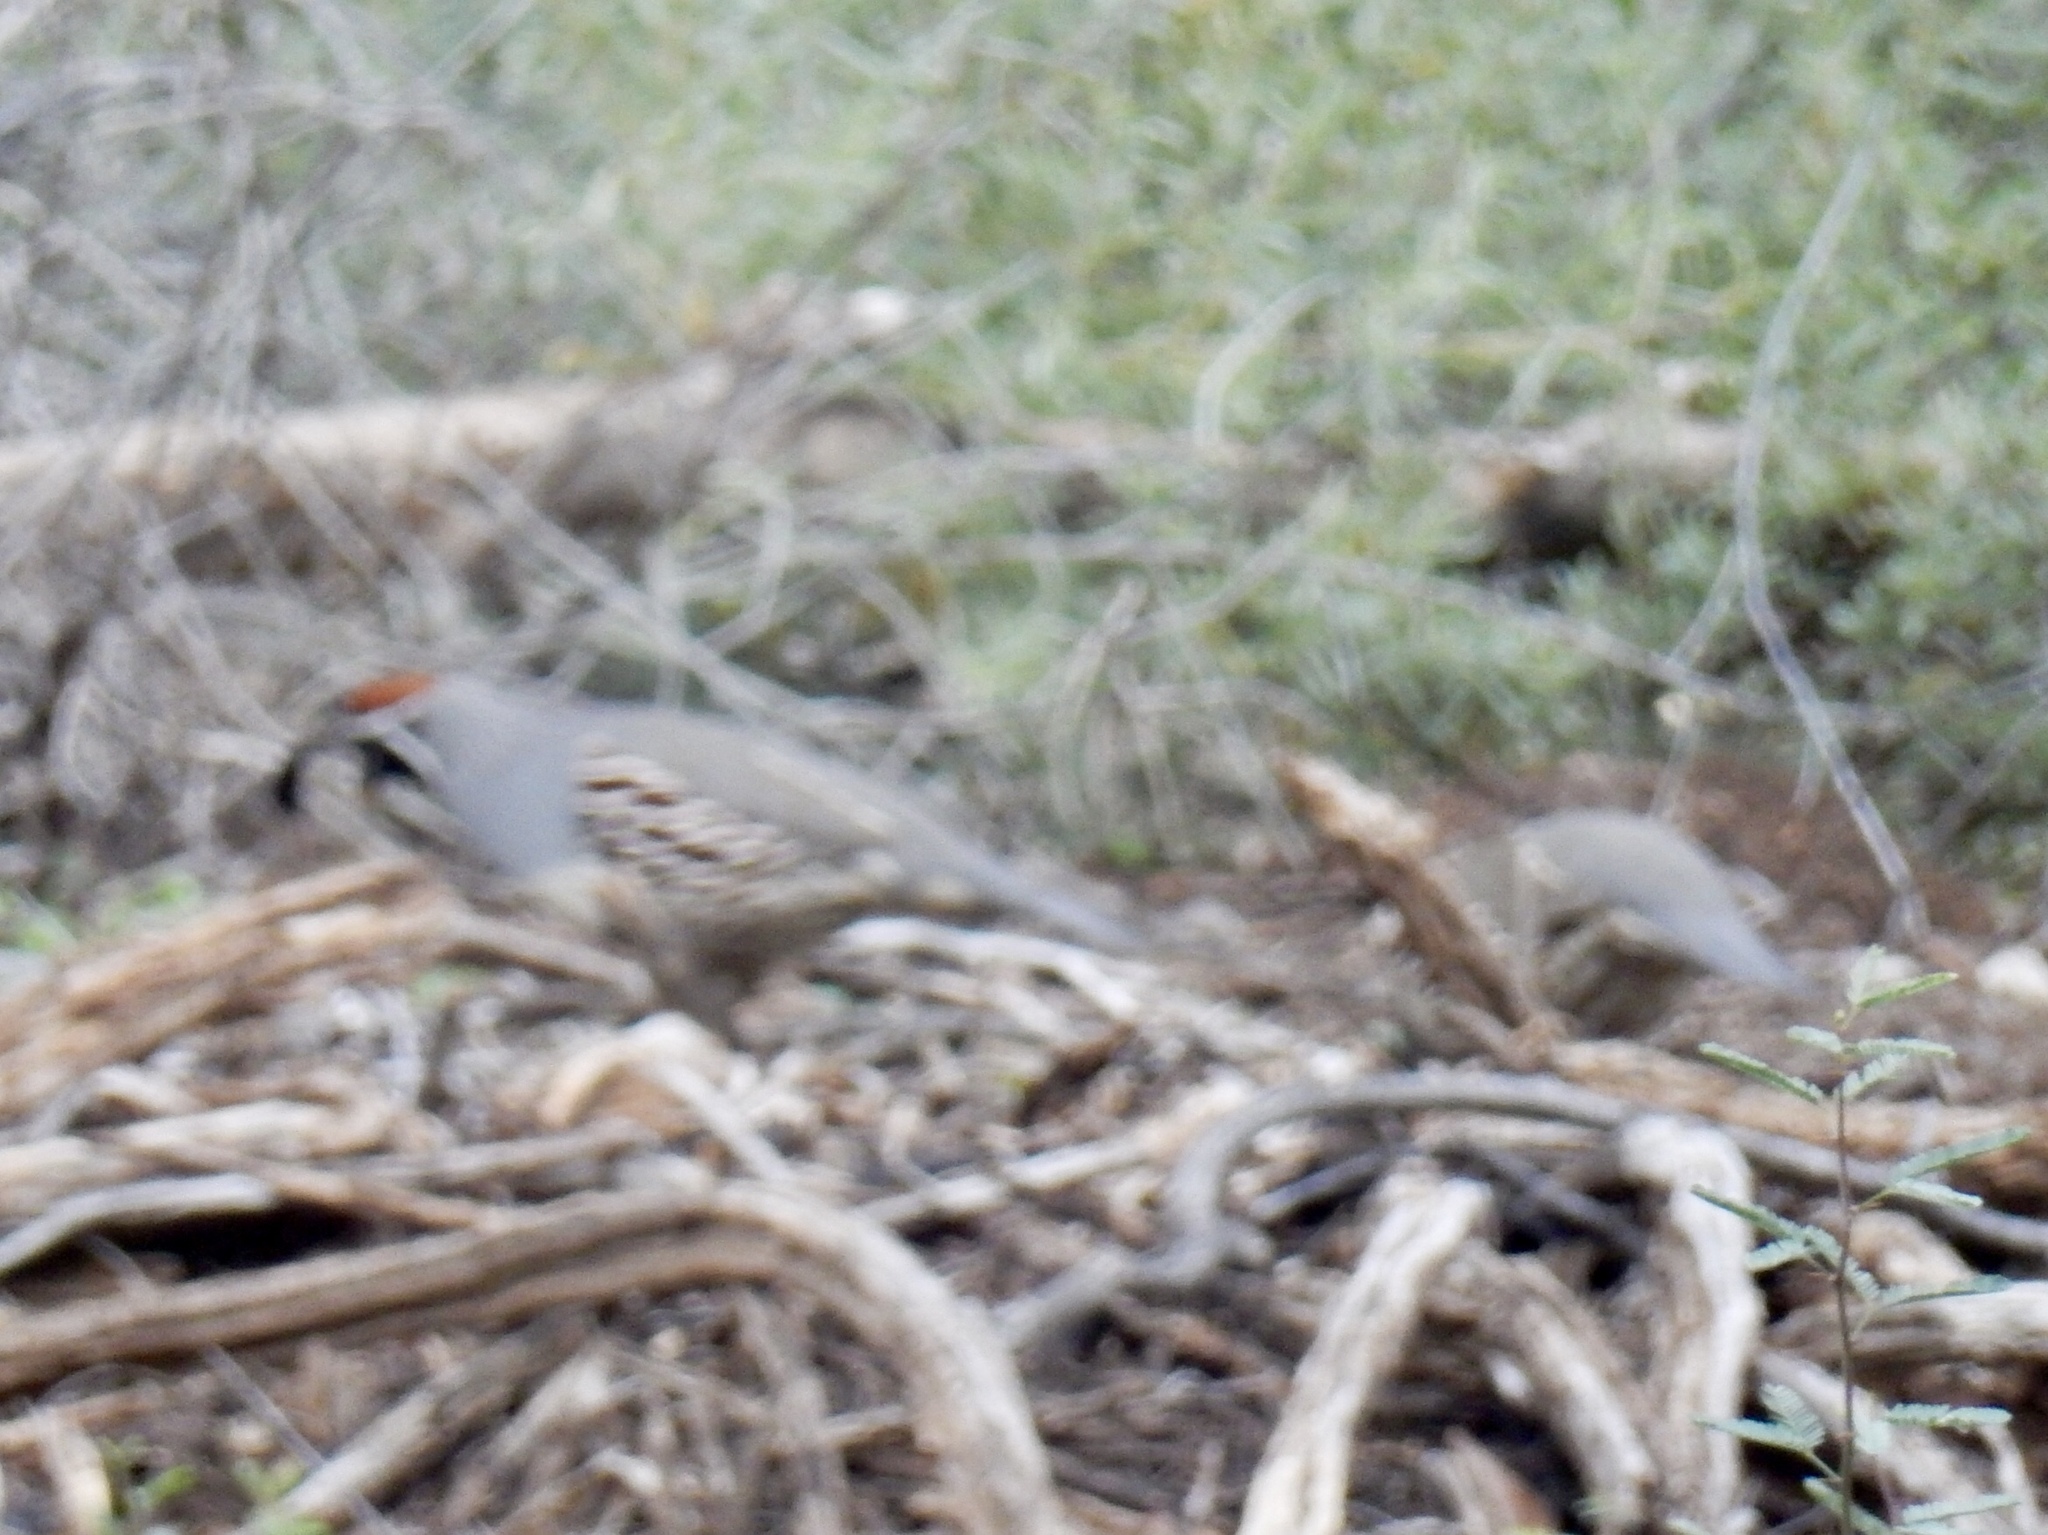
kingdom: Animalia
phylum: Chordata
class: Aves
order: Galliformes
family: Odontophoridae
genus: Callipepla
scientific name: Callipepla gambelii
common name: Gambel's quail
